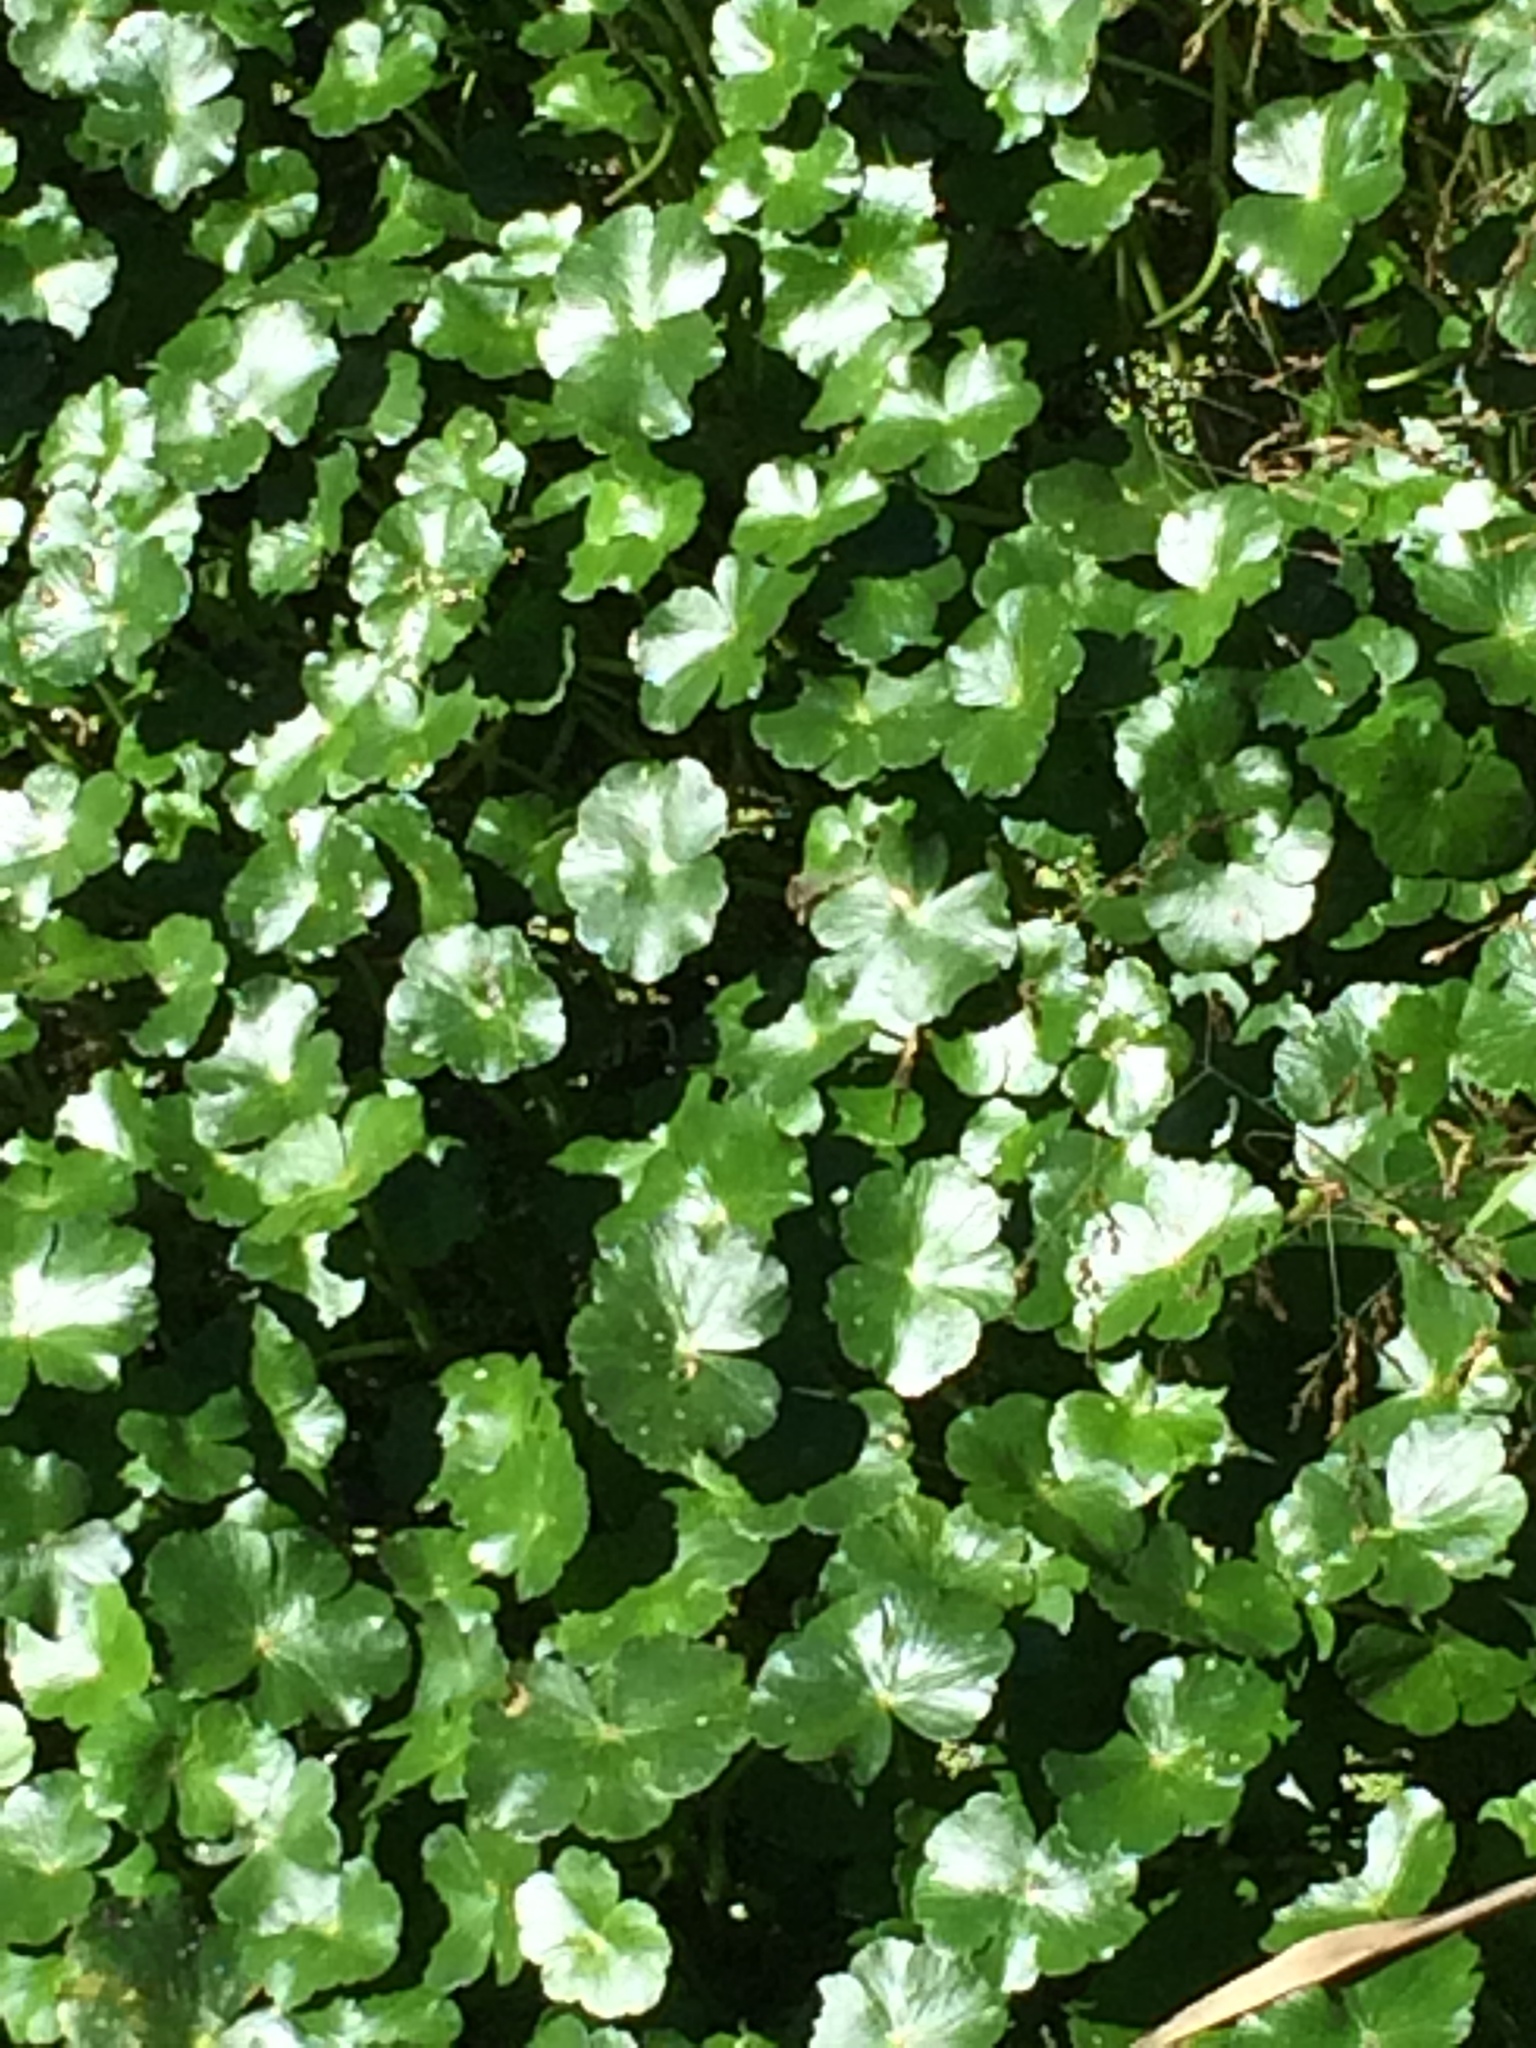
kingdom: Plantae
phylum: Tracheophyta
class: Magnoliopsida
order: Apiales
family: Araliaceae
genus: Hydrocotyle
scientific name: Hydrocotyle ranunculoides
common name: Floating pennywort
